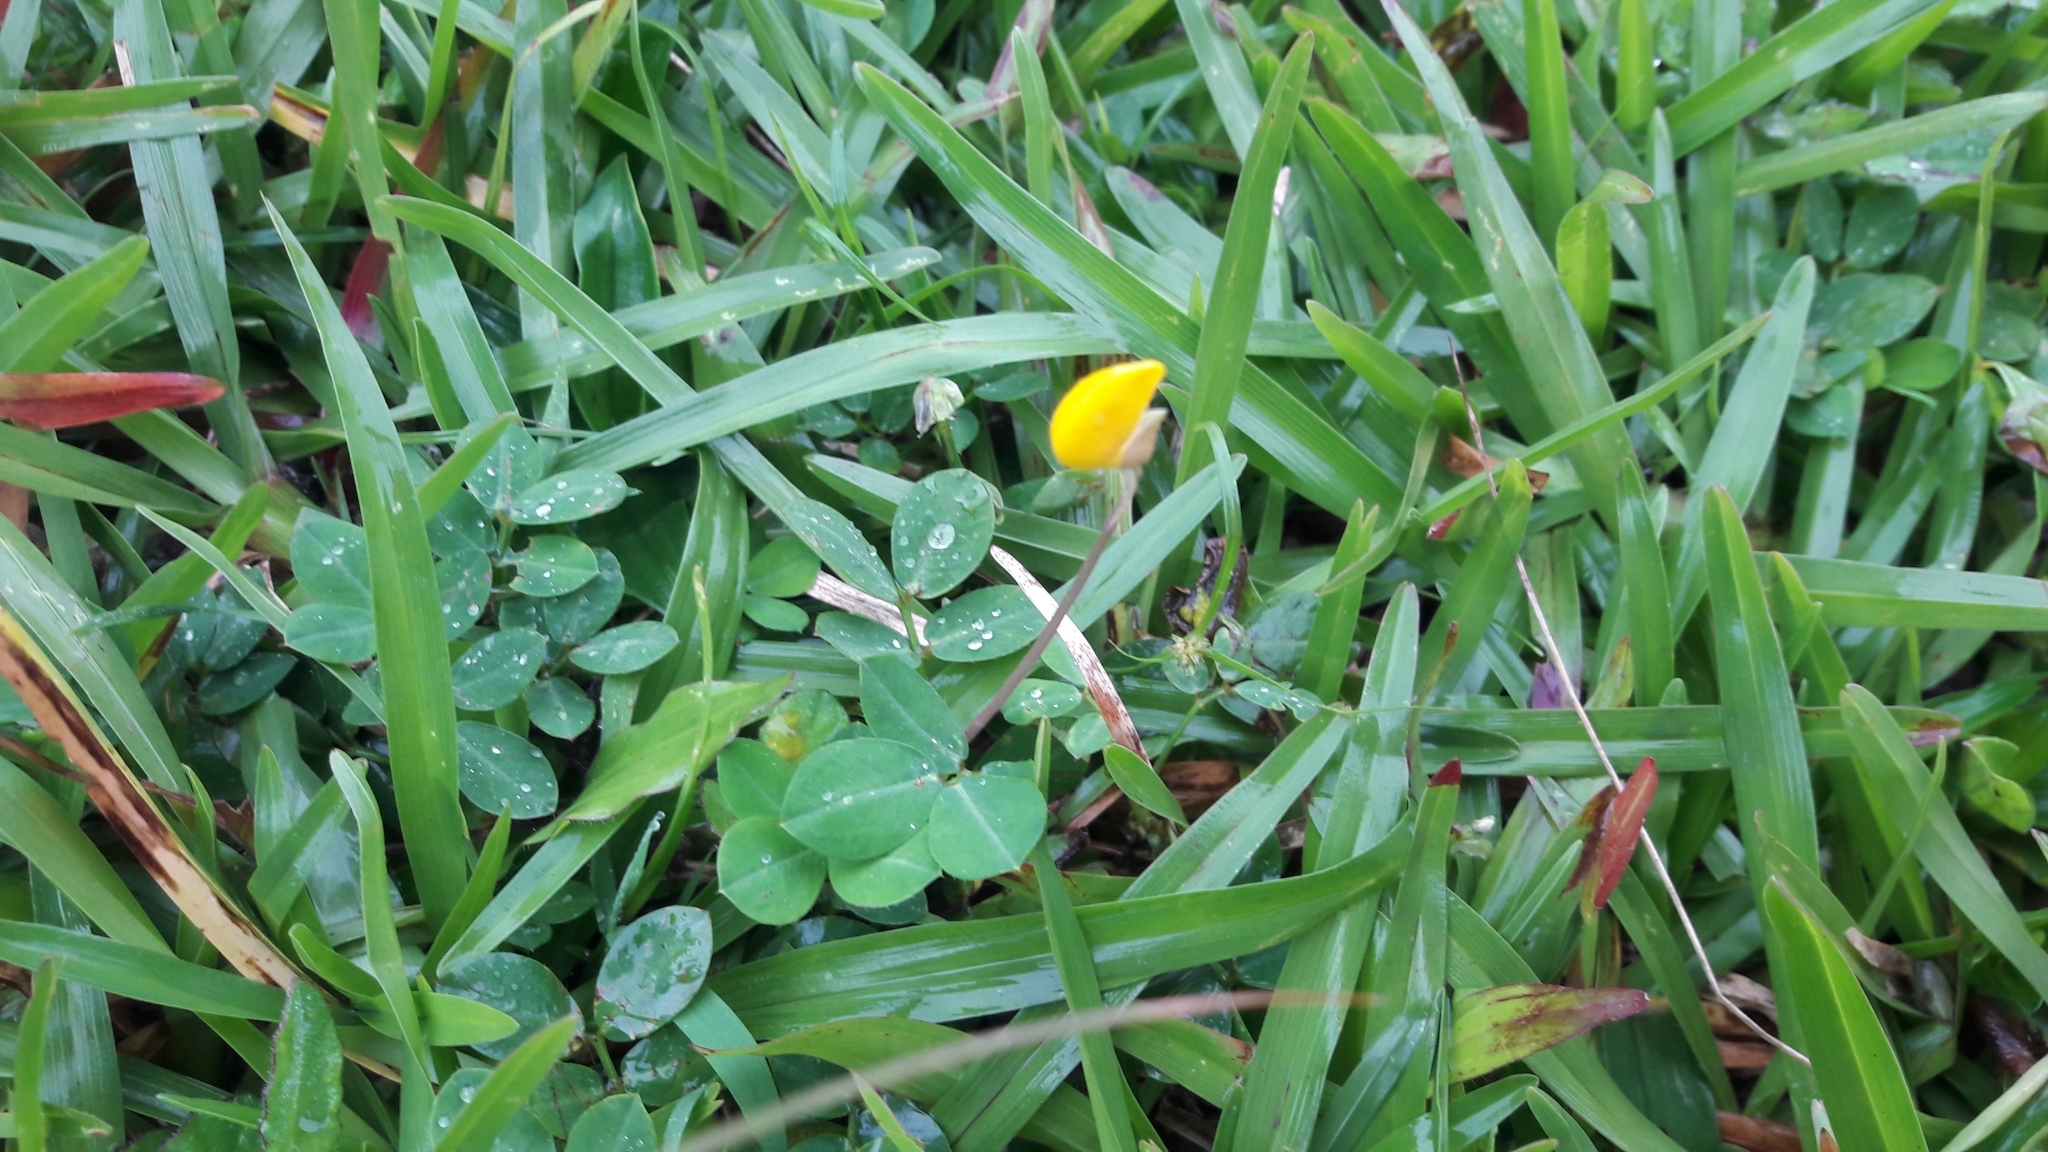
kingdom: Plantae
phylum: Tracheophyta
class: Magnoliopsida
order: Fabales
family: Fabaceae
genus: Arachis
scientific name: Arachis pintoi
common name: Pinto peanut
